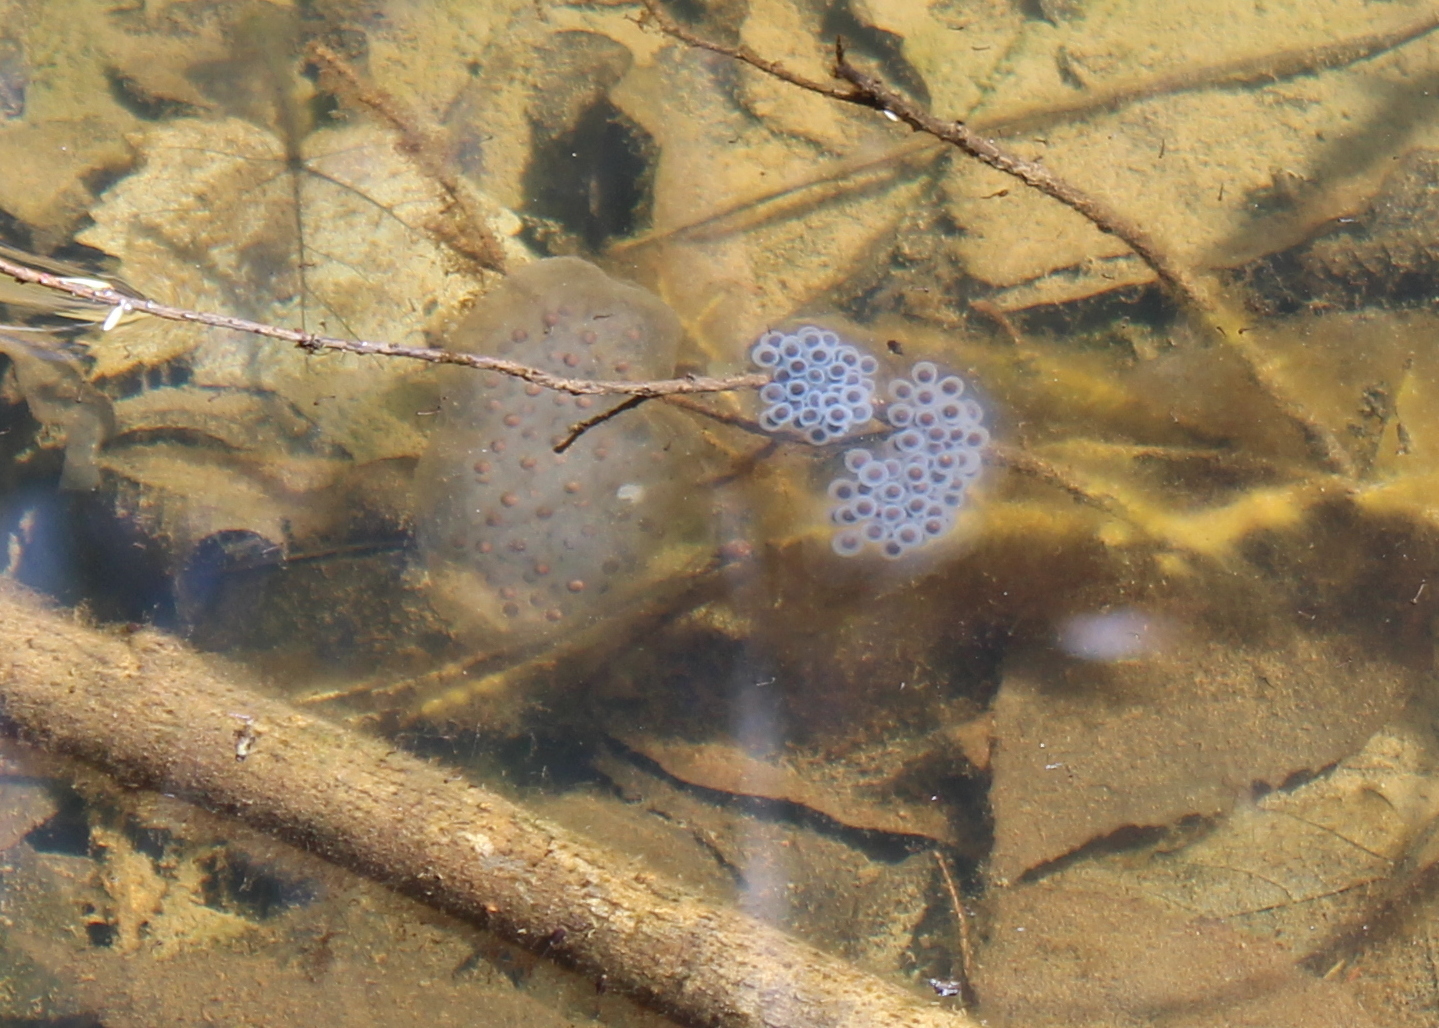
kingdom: Animalia
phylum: Chordata
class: Amphibia
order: Caudata
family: Ambystomatidae
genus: Ambystoma
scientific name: Ambystoma maculatum
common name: Spotted salamander
